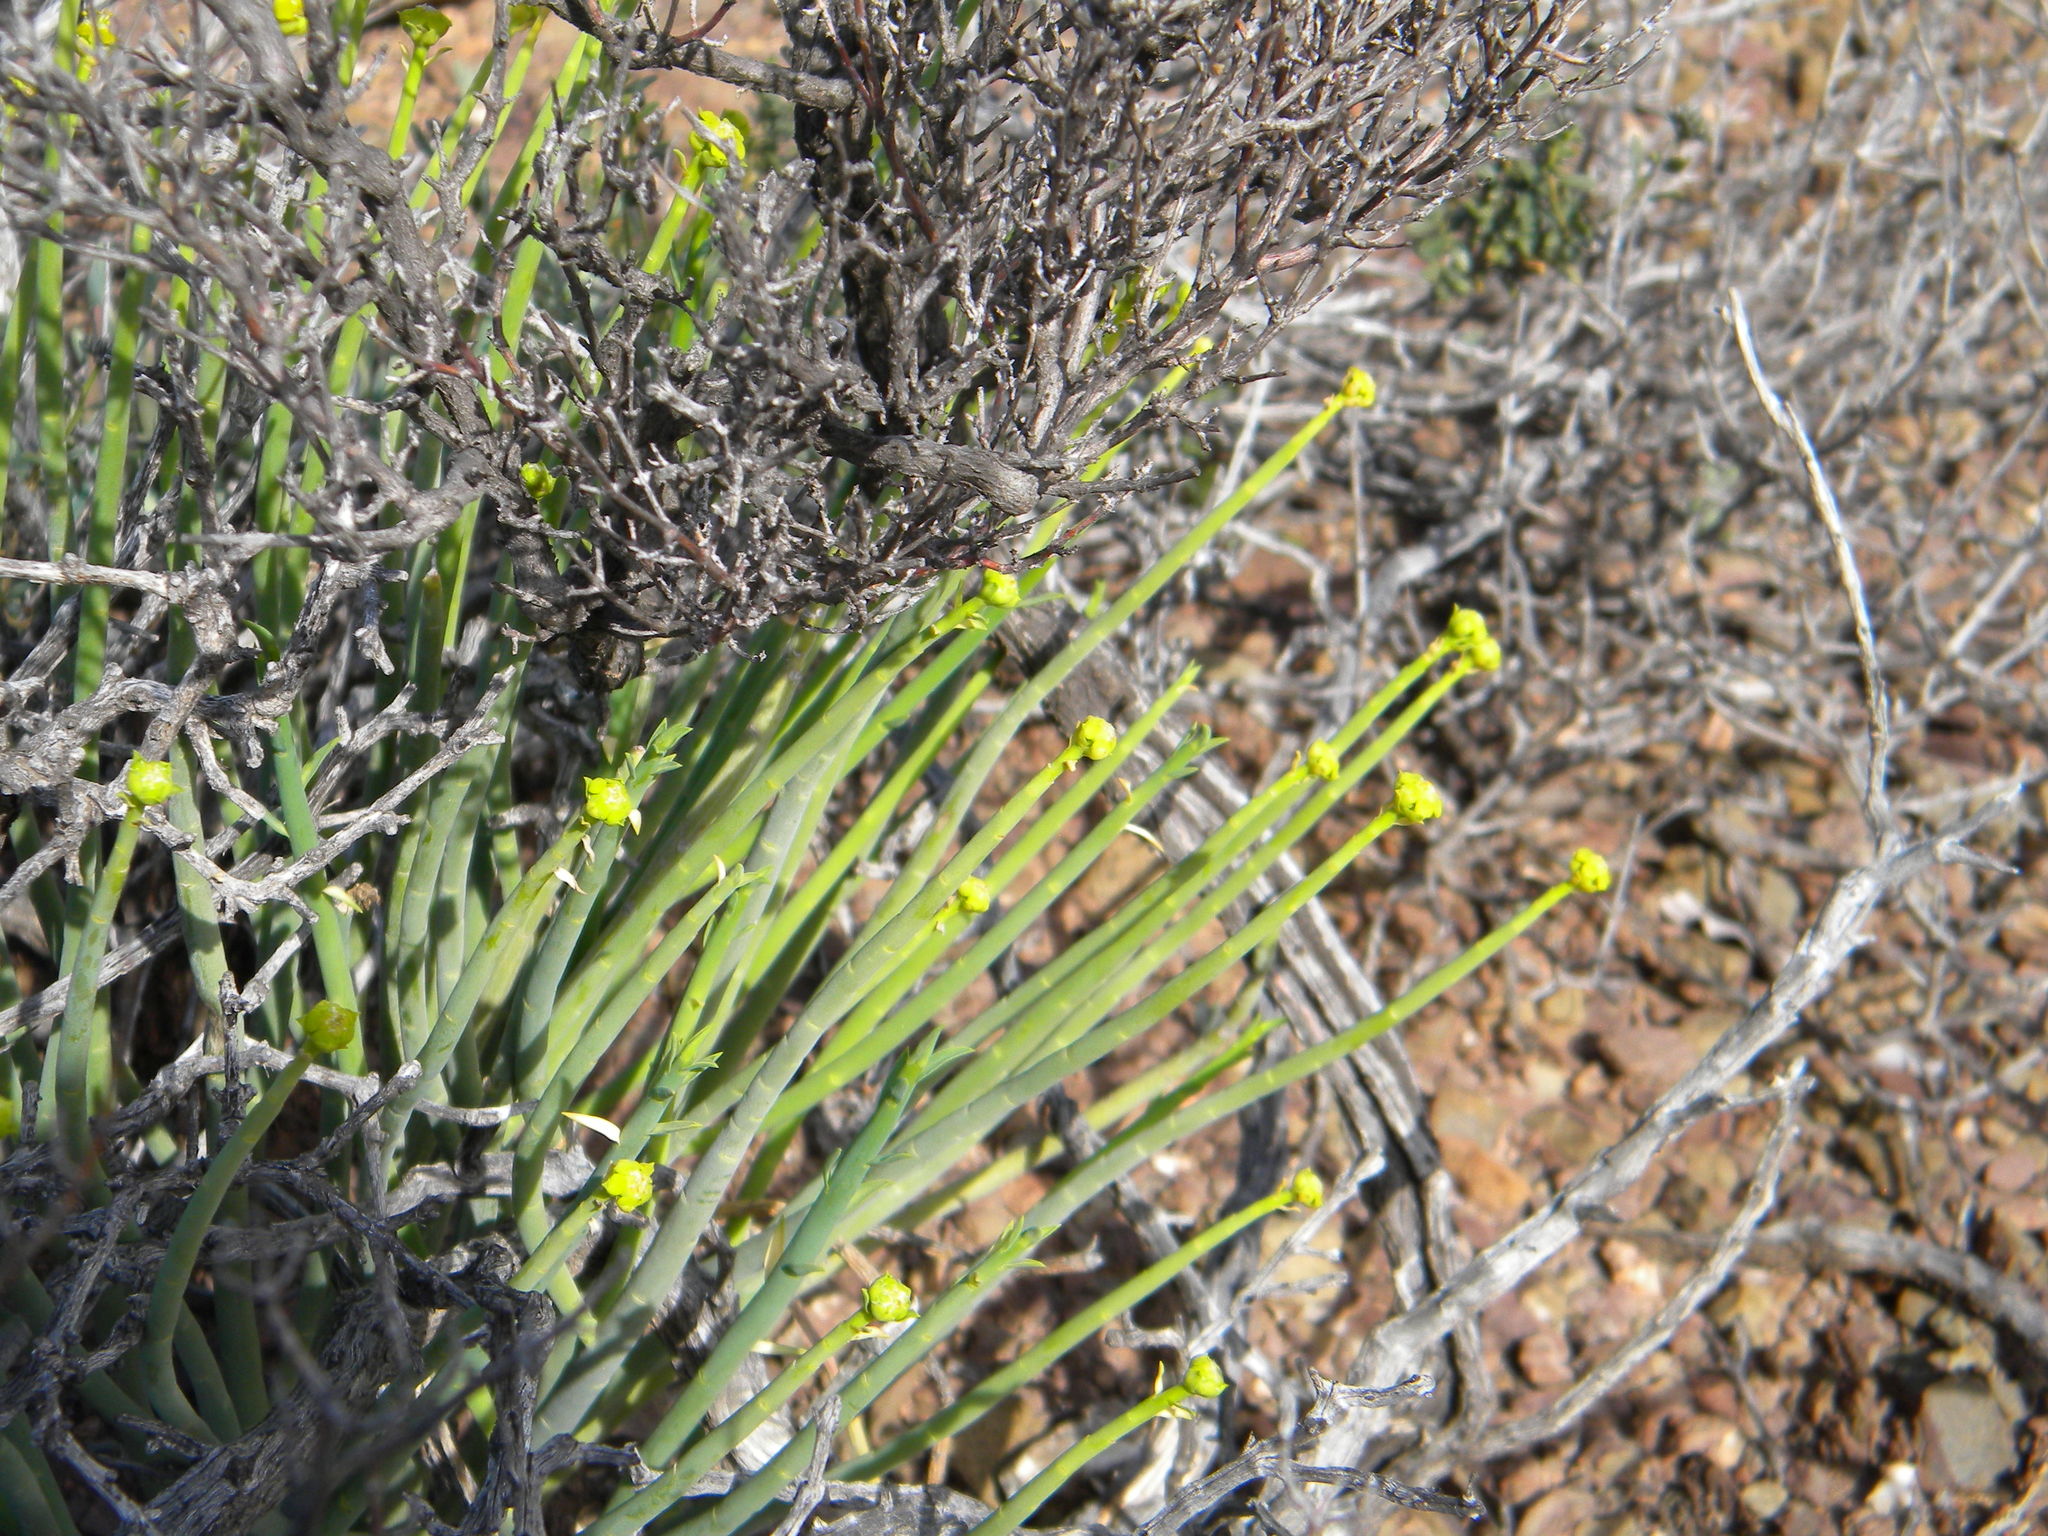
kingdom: Plantae
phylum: Tracheophyta
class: Magnoliopsida
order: Malpighiales
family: Euphorbiaceae
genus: Euphorbia
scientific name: Euphorbia mauritanica
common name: Jackal's-food
